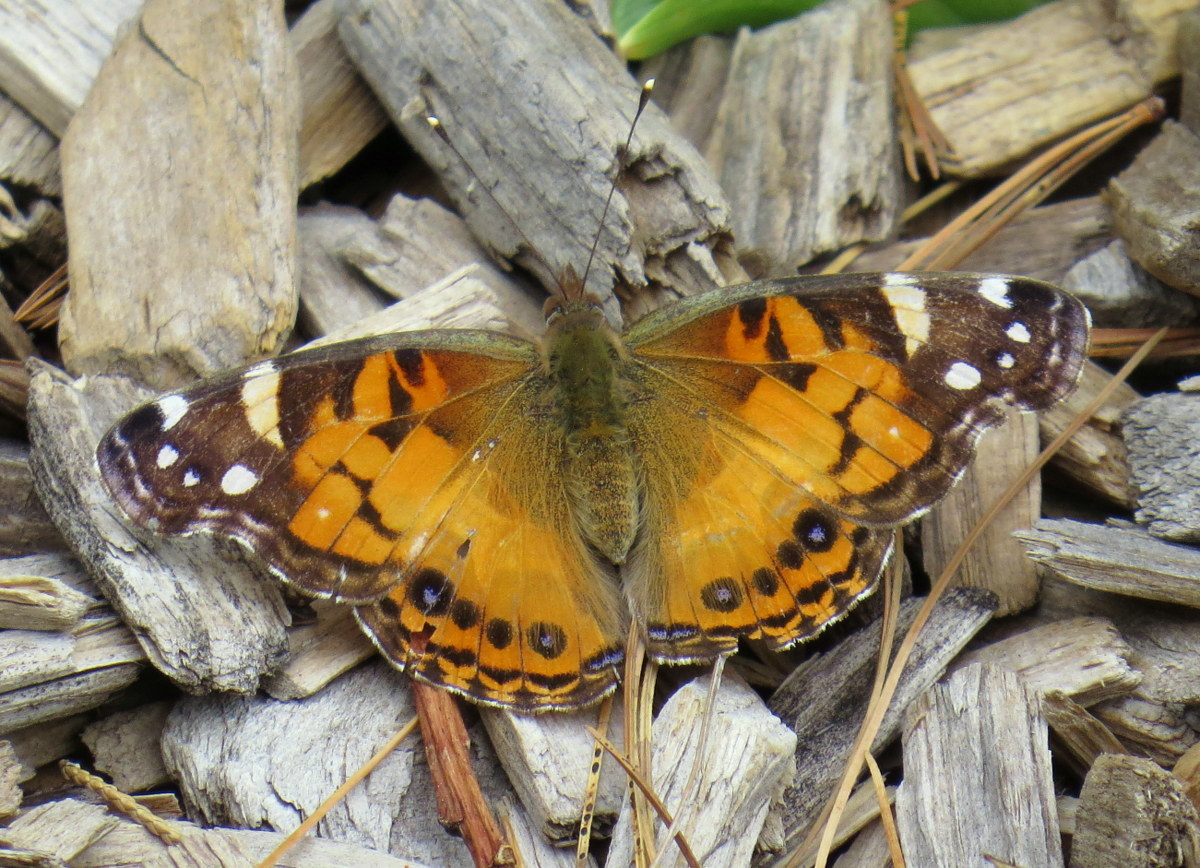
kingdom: Animalia
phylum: Arthropoda
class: Insecta
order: Lepidoptera
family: Nymphalidae
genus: Vanessa
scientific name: Vanessa virginiensis
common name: American lady
